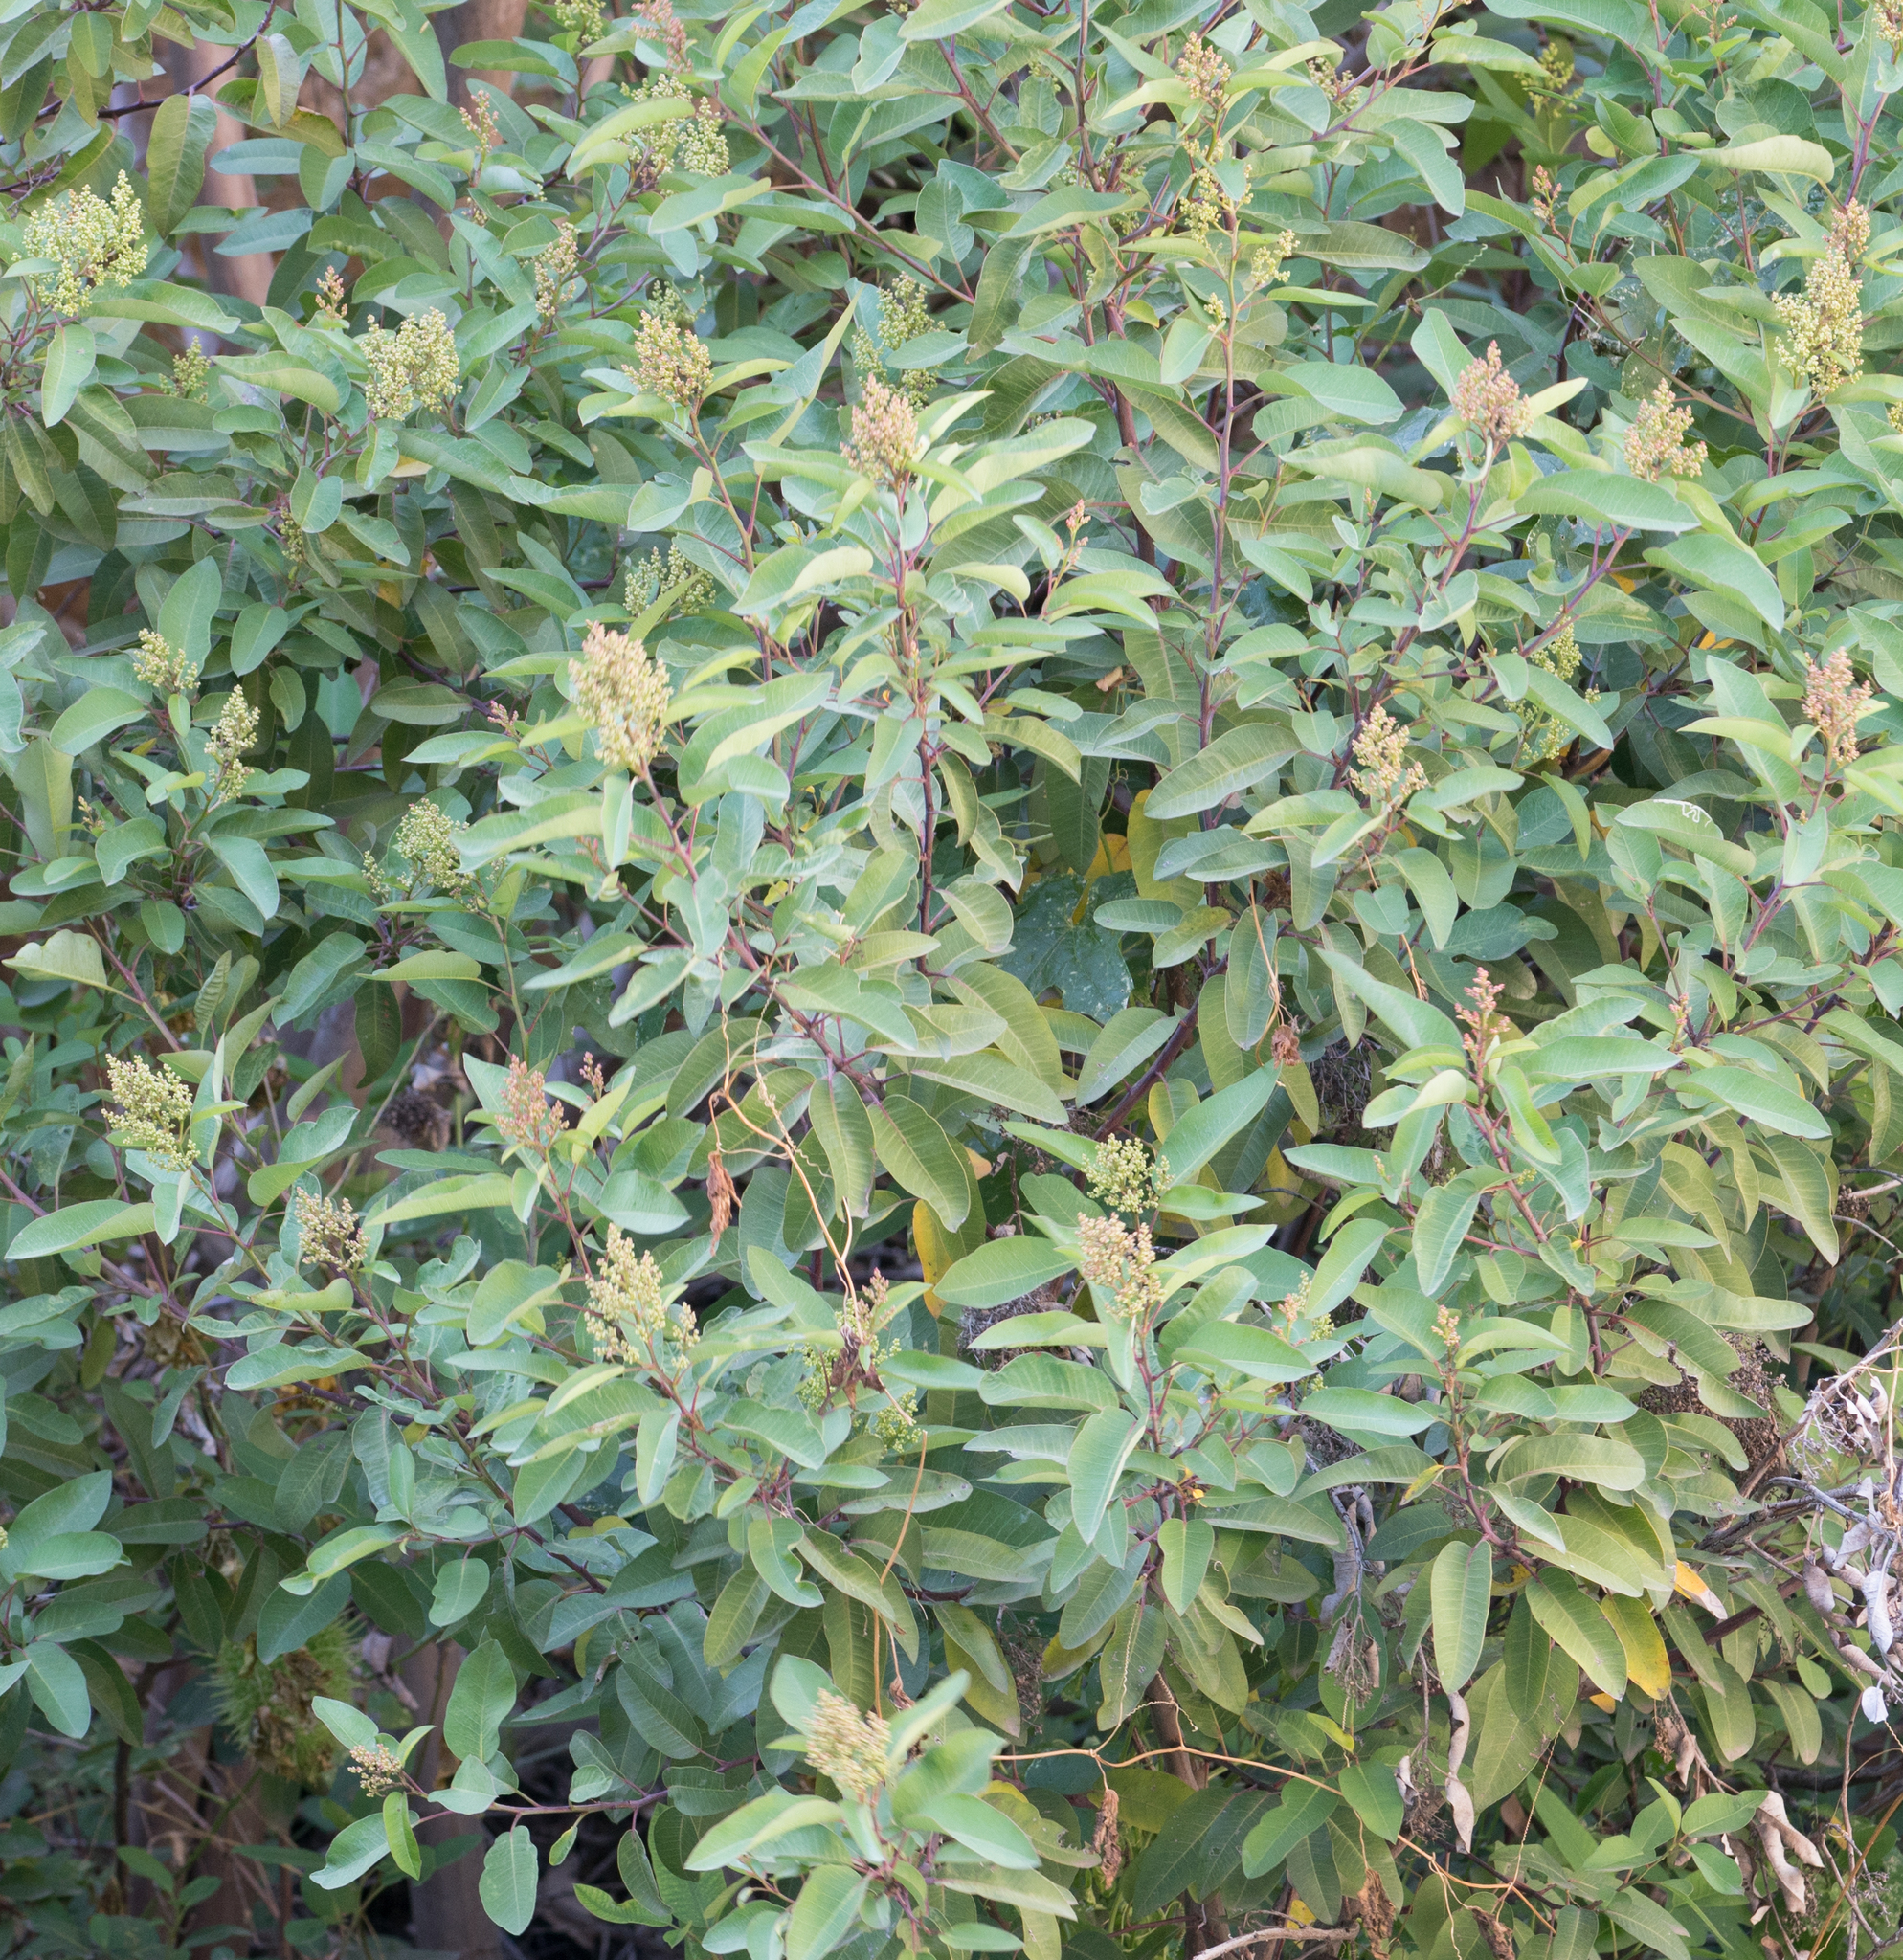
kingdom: Plantae
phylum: Tracheophyta
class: Magnoliopsida
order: Sapindales
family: Anacardiaceae
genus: Malosma
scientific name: Malosma laurina
